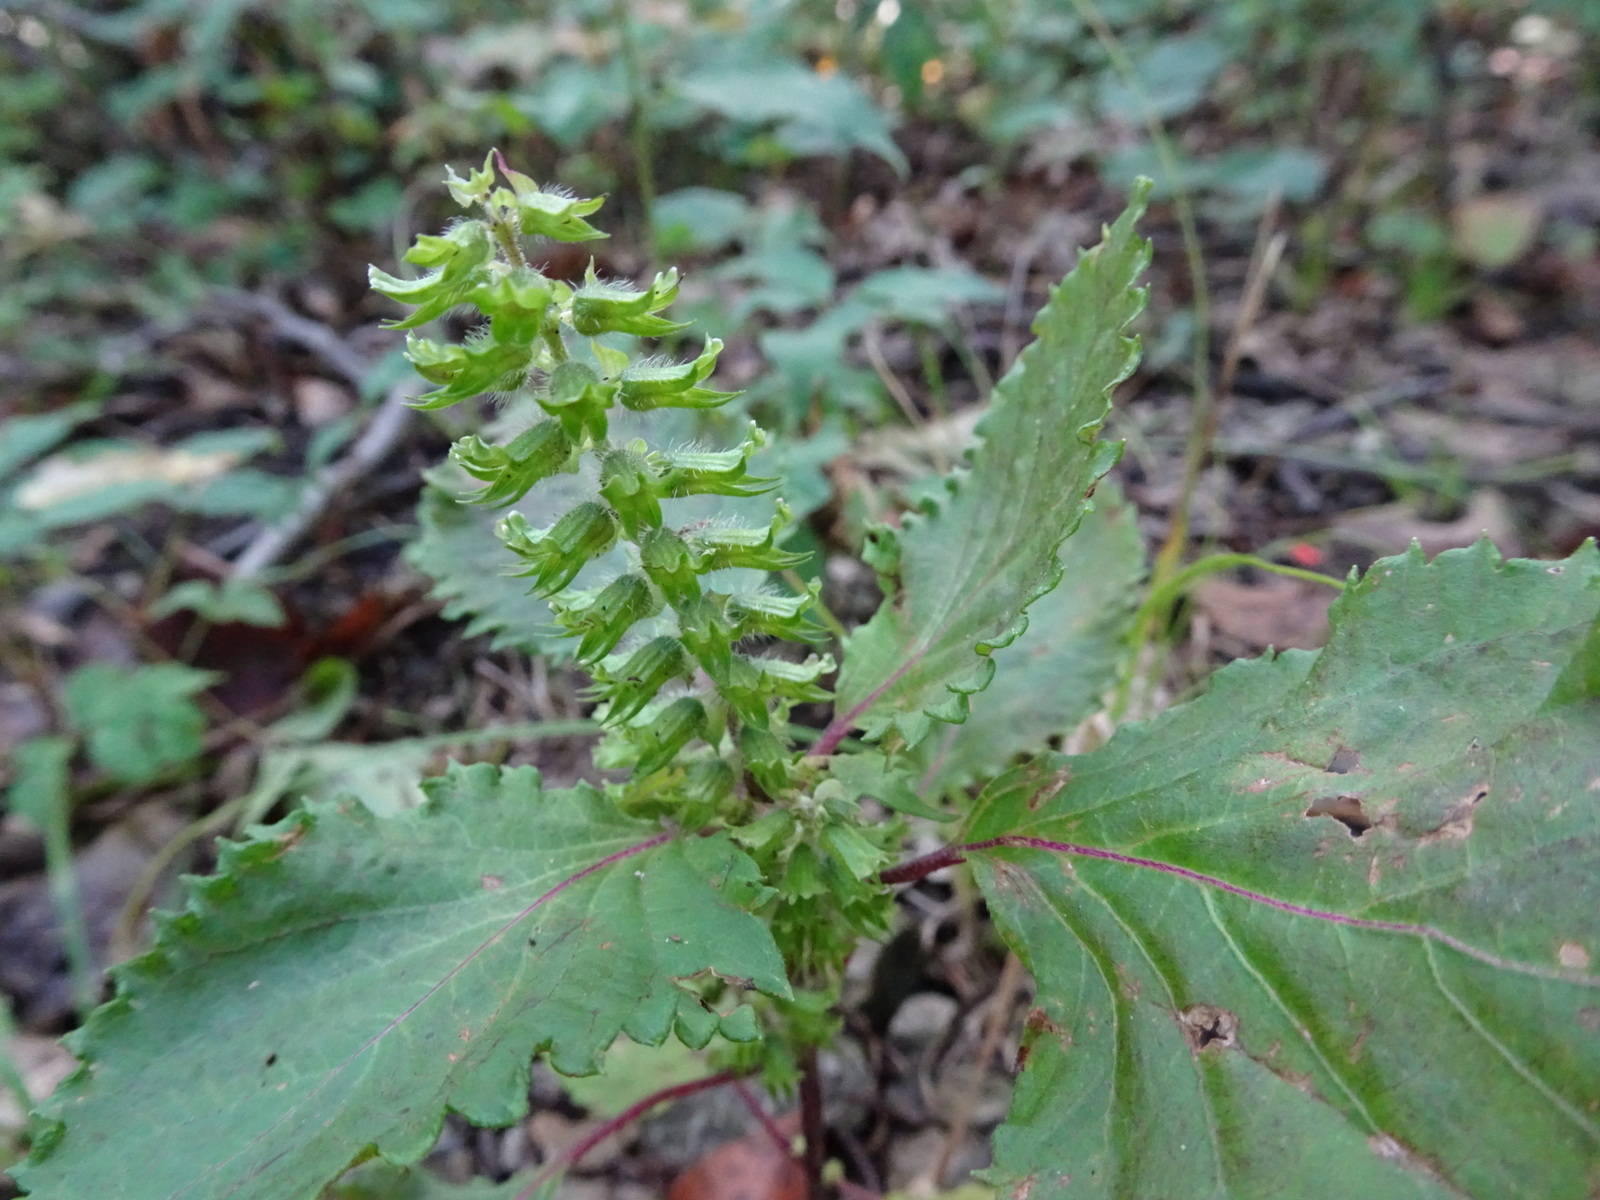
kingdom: Plantae
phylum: Tracheophyta
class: Magnoliopsida
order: Lamiales
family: Lamiaceae
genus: Perilla
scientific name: Perilla frutescens
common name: Perilla
